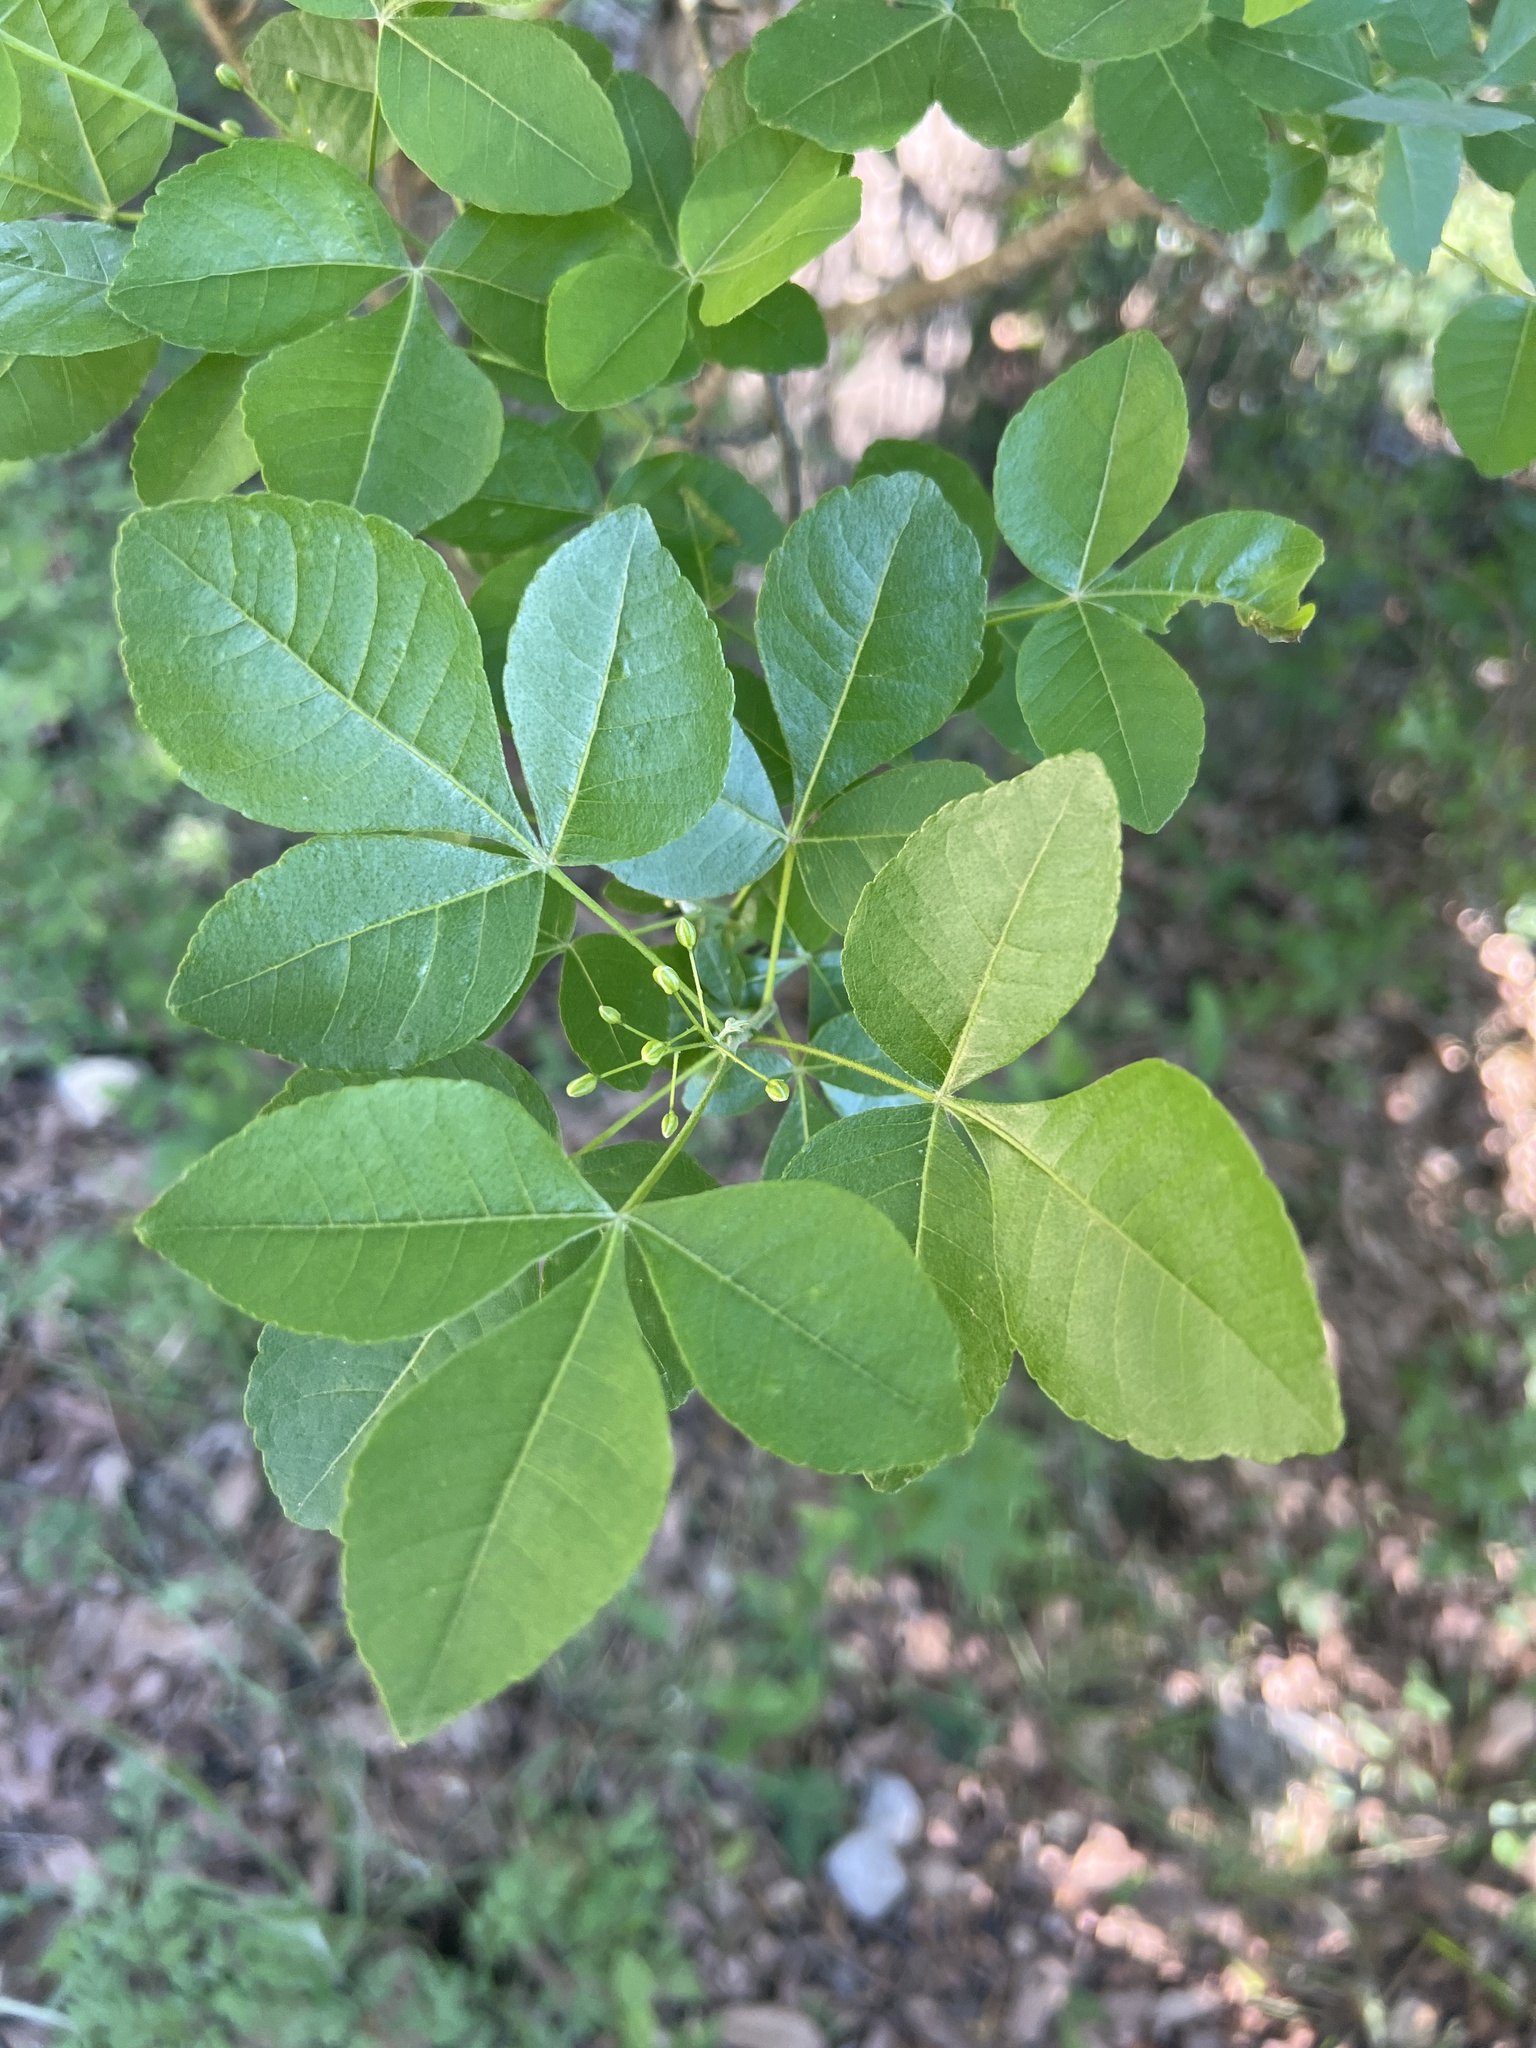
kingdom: Plantae
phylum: Tracheophyta
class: Magnoliopsida
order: Sapindales
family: Rutaceae
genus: Ptelea
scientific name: Ptelea trifoliata
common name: Common hop-tree
